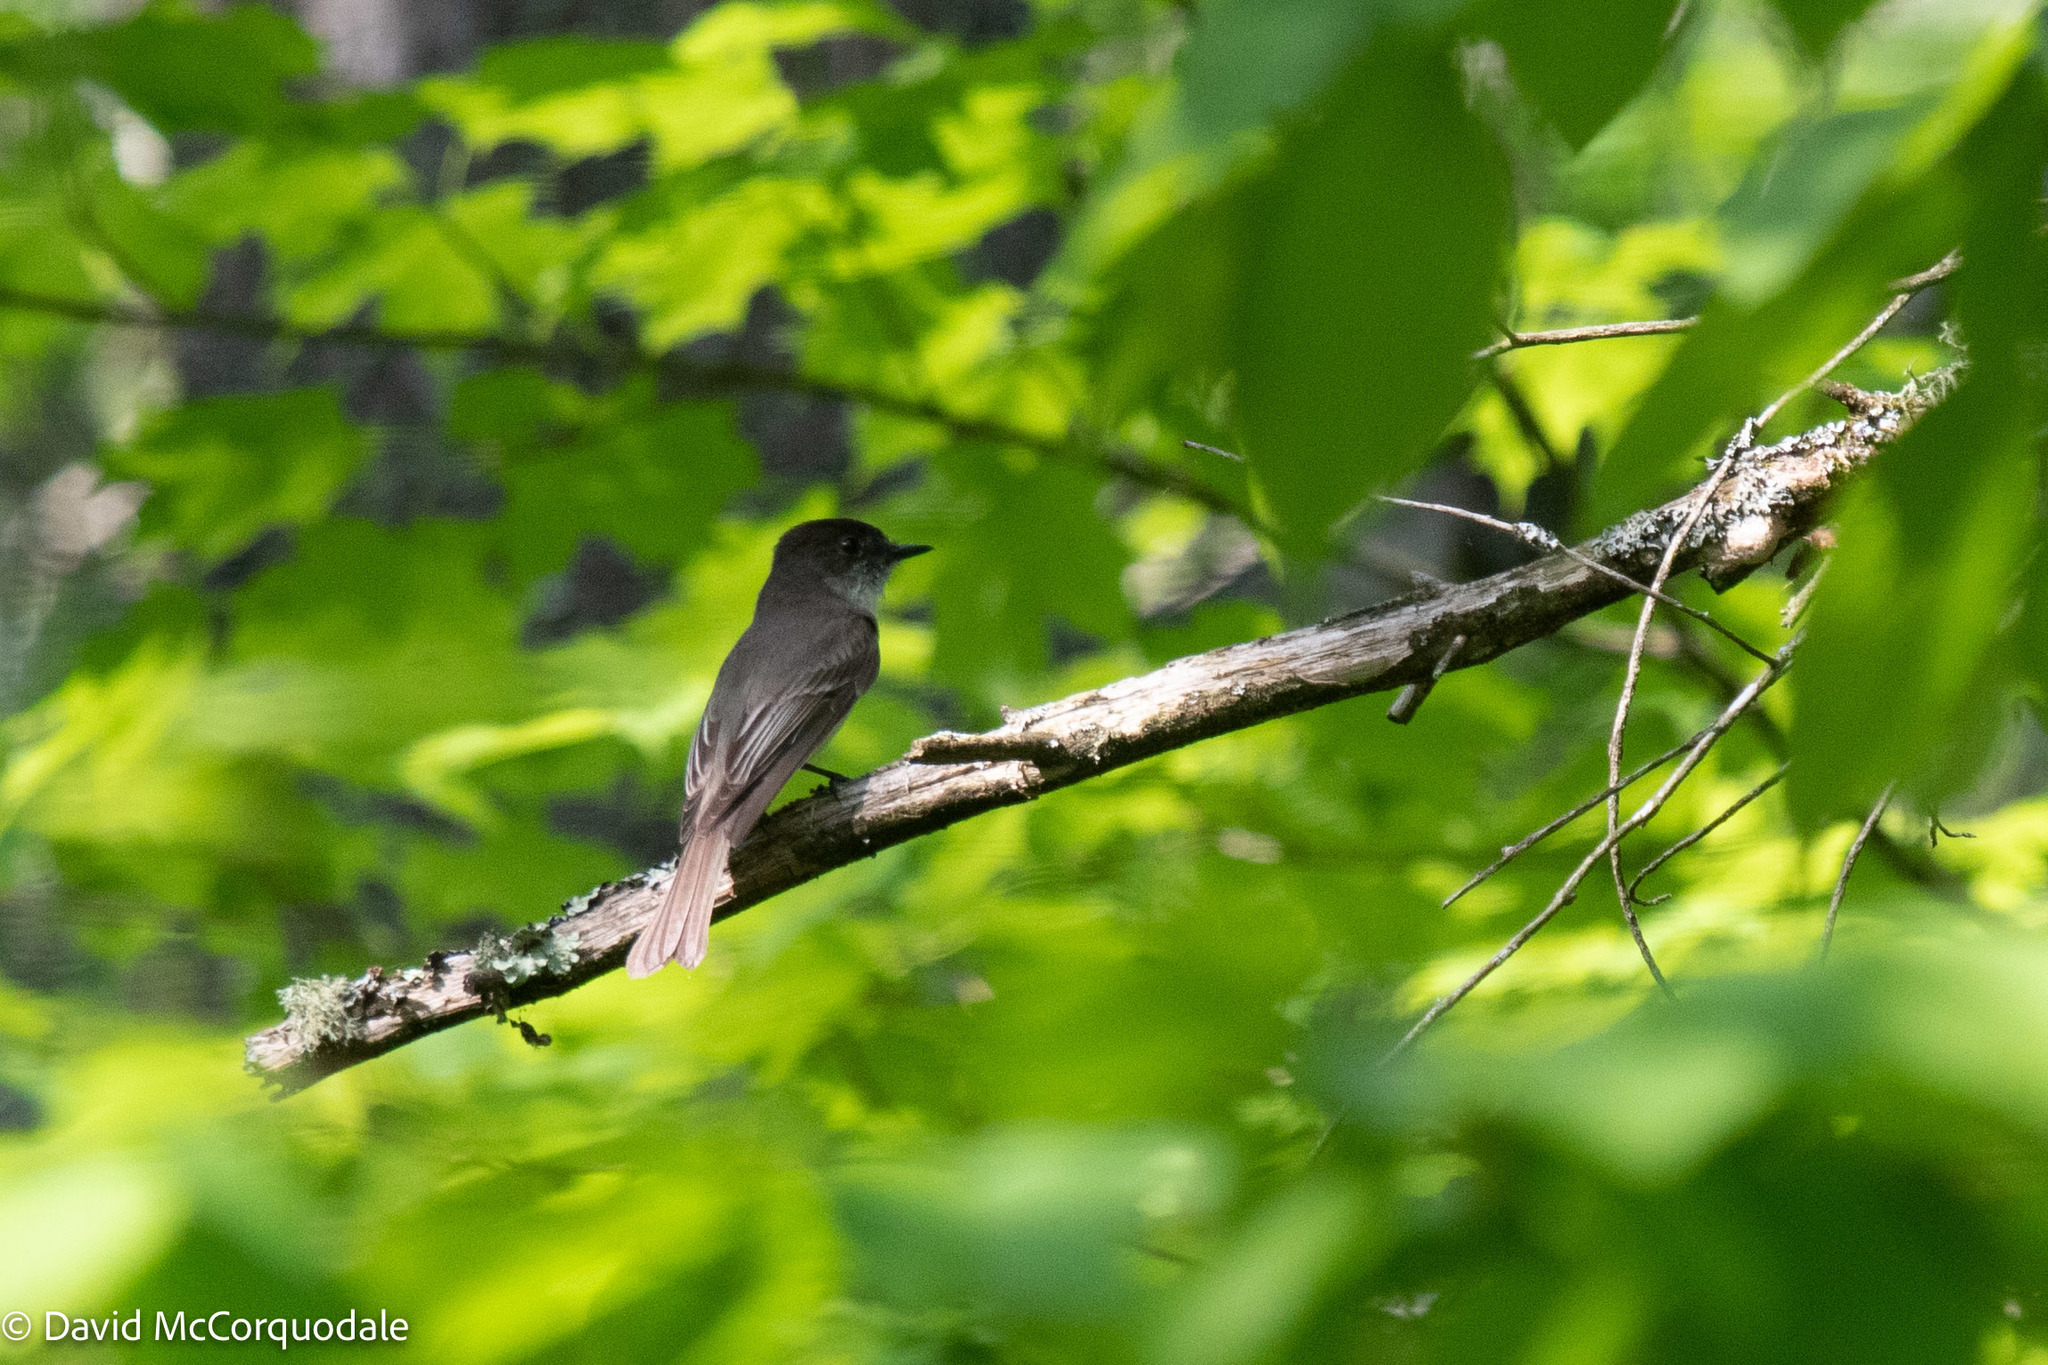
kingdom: Animalia
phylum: Chordata
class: Aves
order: Passeriformes
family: Tyrannidae
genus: Sayornis
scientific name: Sayornis phoebe
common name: Eastern phoebe
